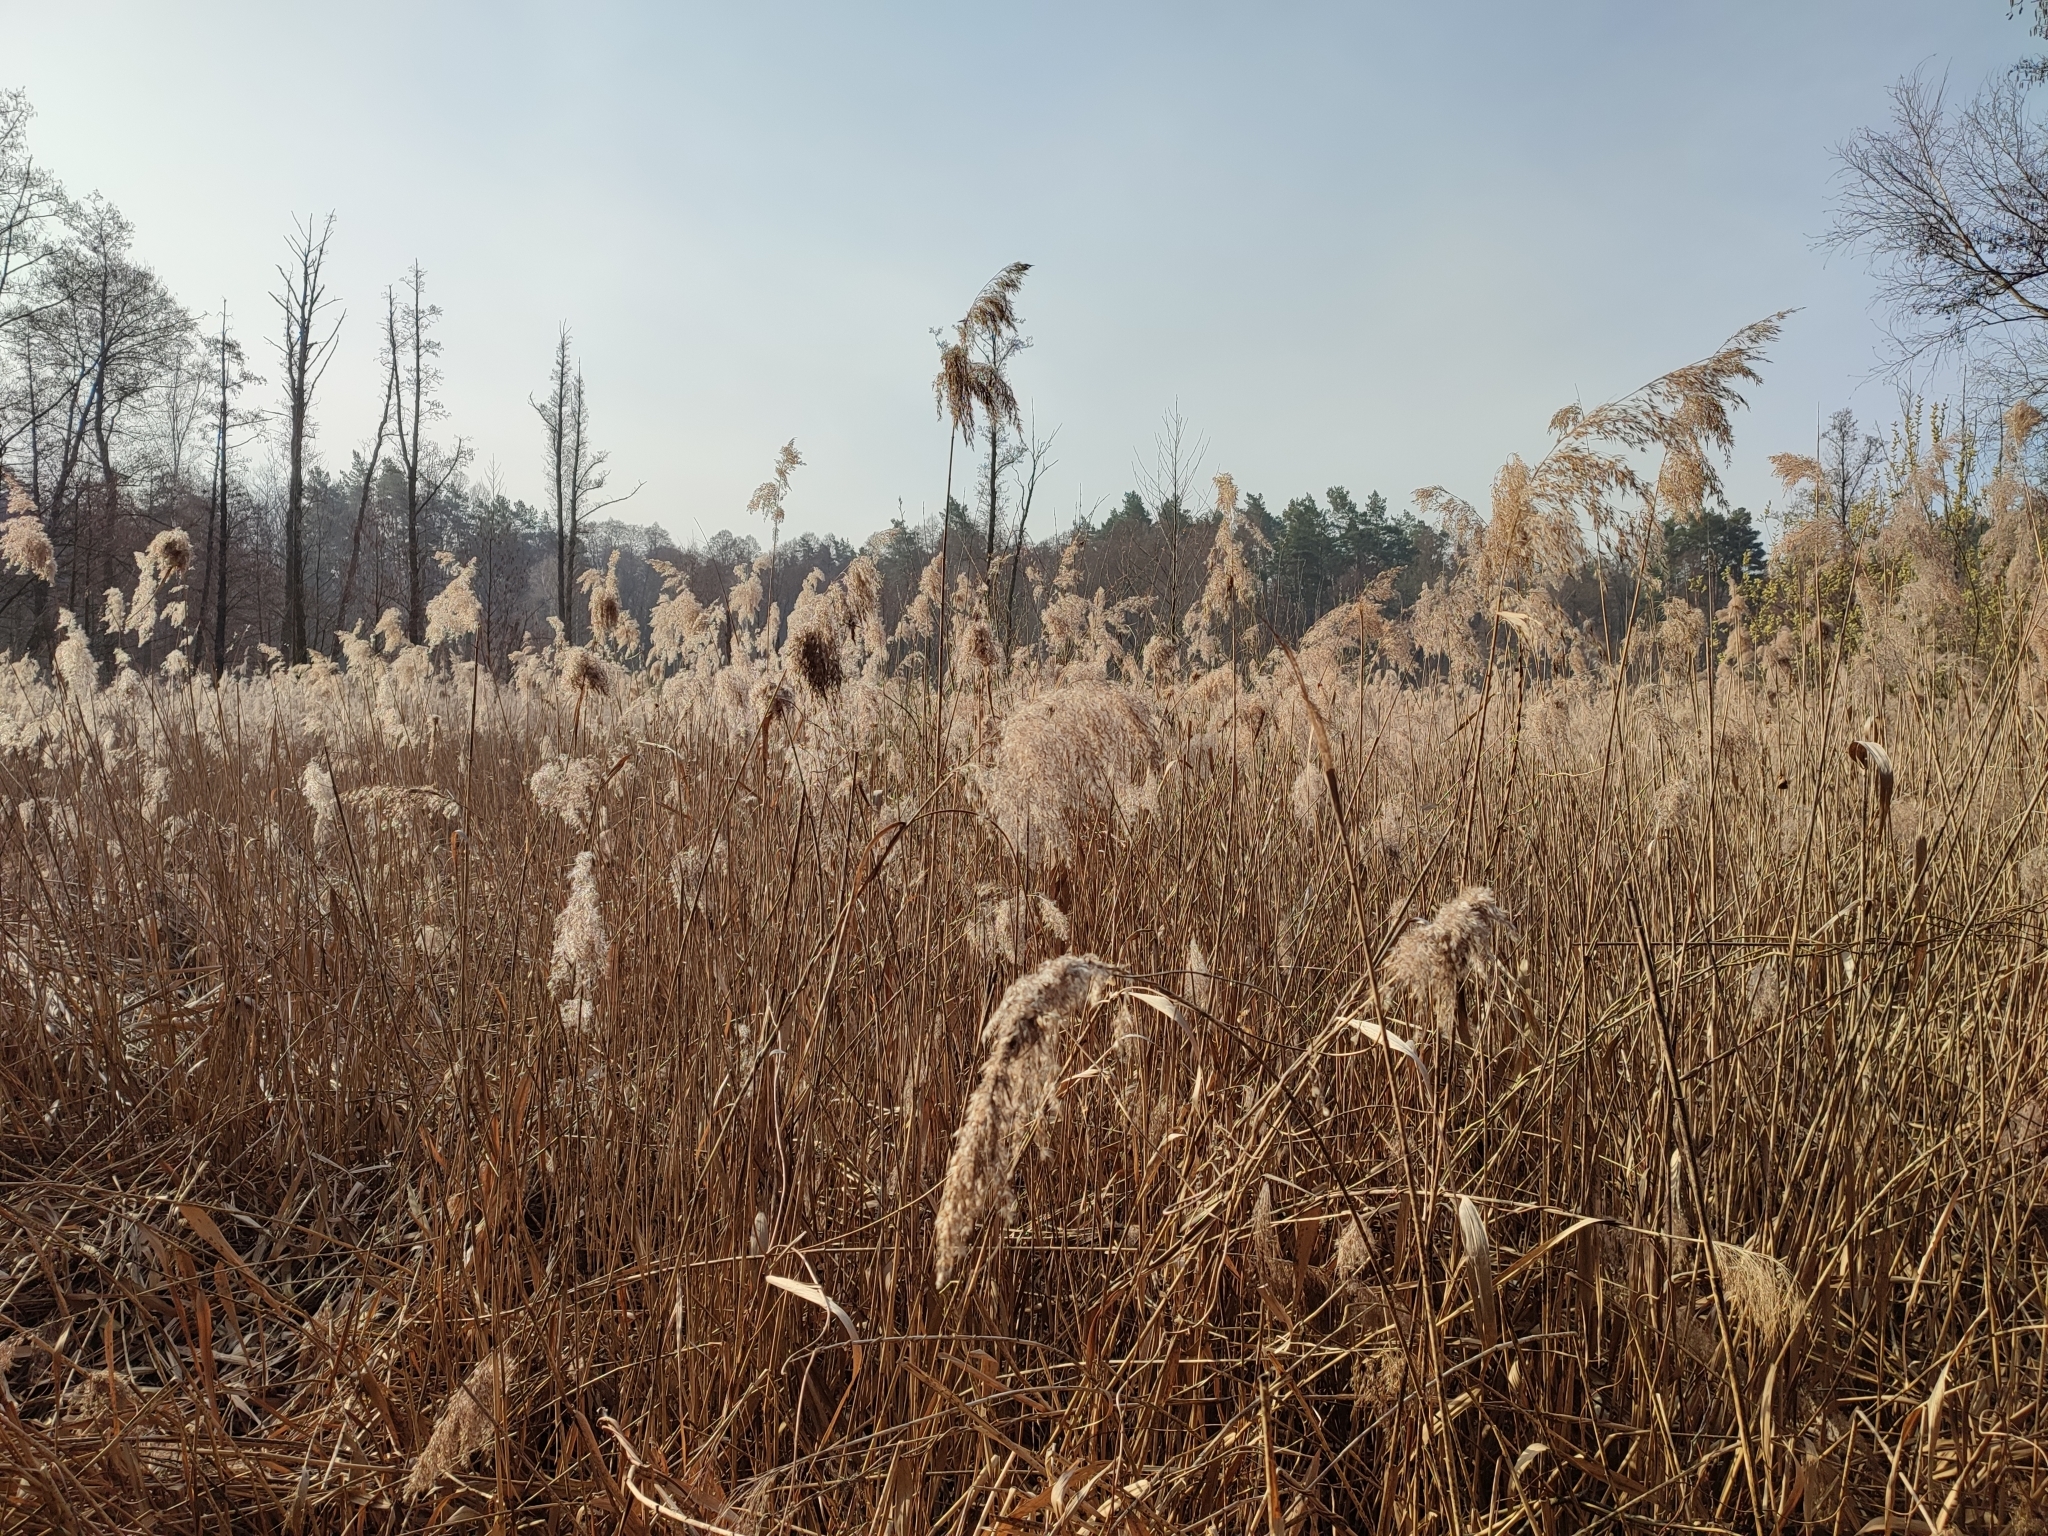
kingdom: Plantae
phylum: Tracheophyta
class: Liliopsida
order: Poales
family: Poaceae
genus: Phragmites
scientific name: Phragmites australis
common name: Common reed
